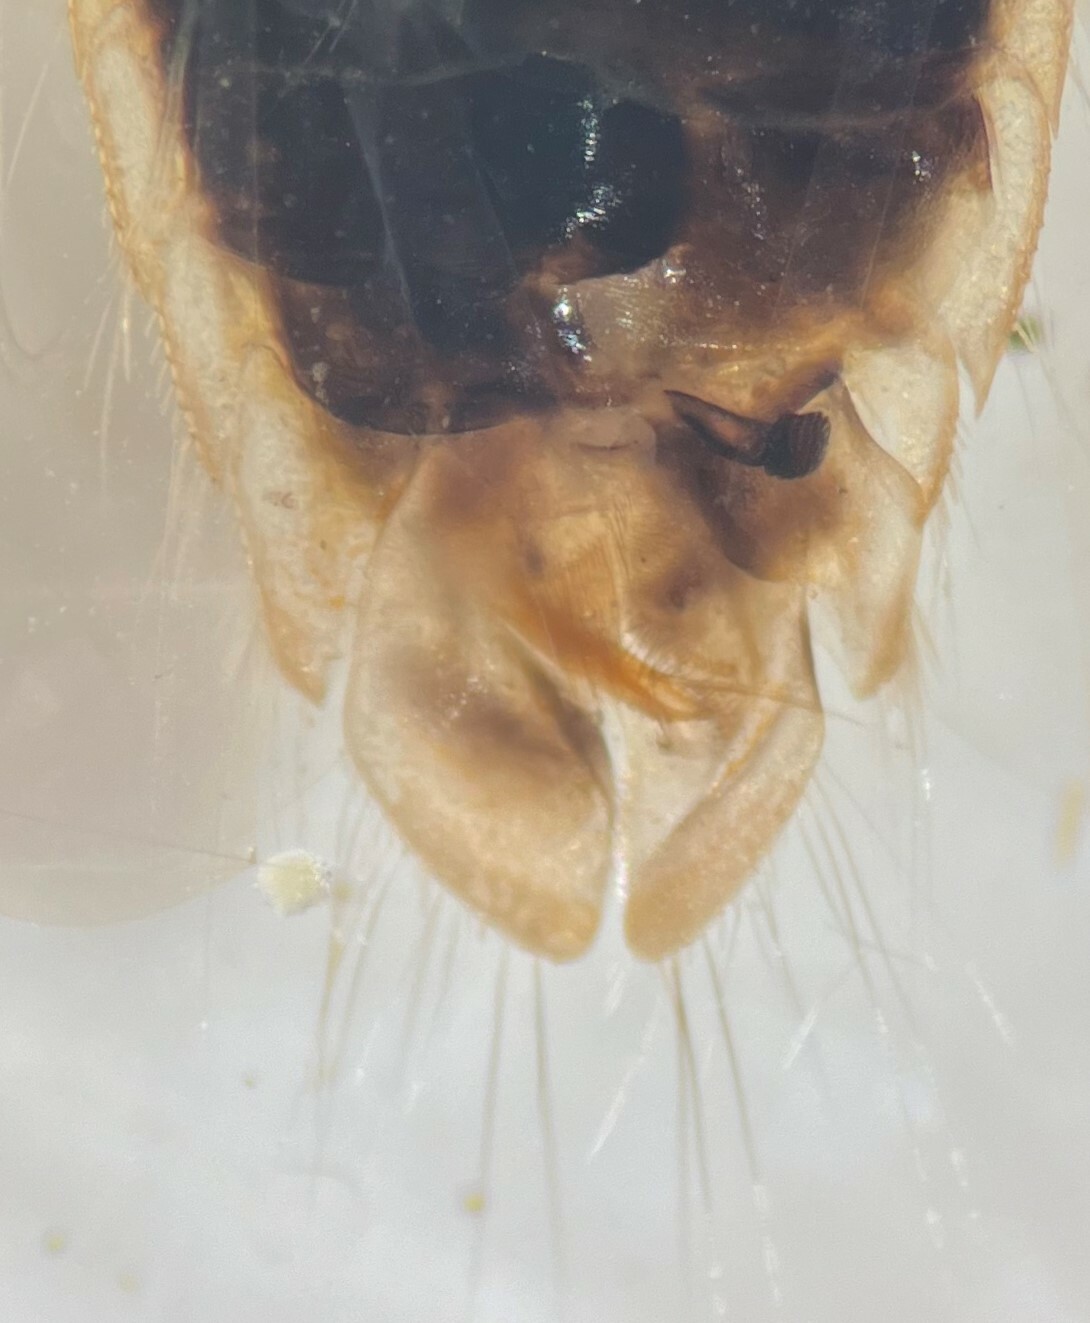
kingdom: Animalia
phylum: Arthropoda
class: Insecta
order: Hemiptera
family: Corixidae
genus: Sigara
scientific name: Sigara variabilis
